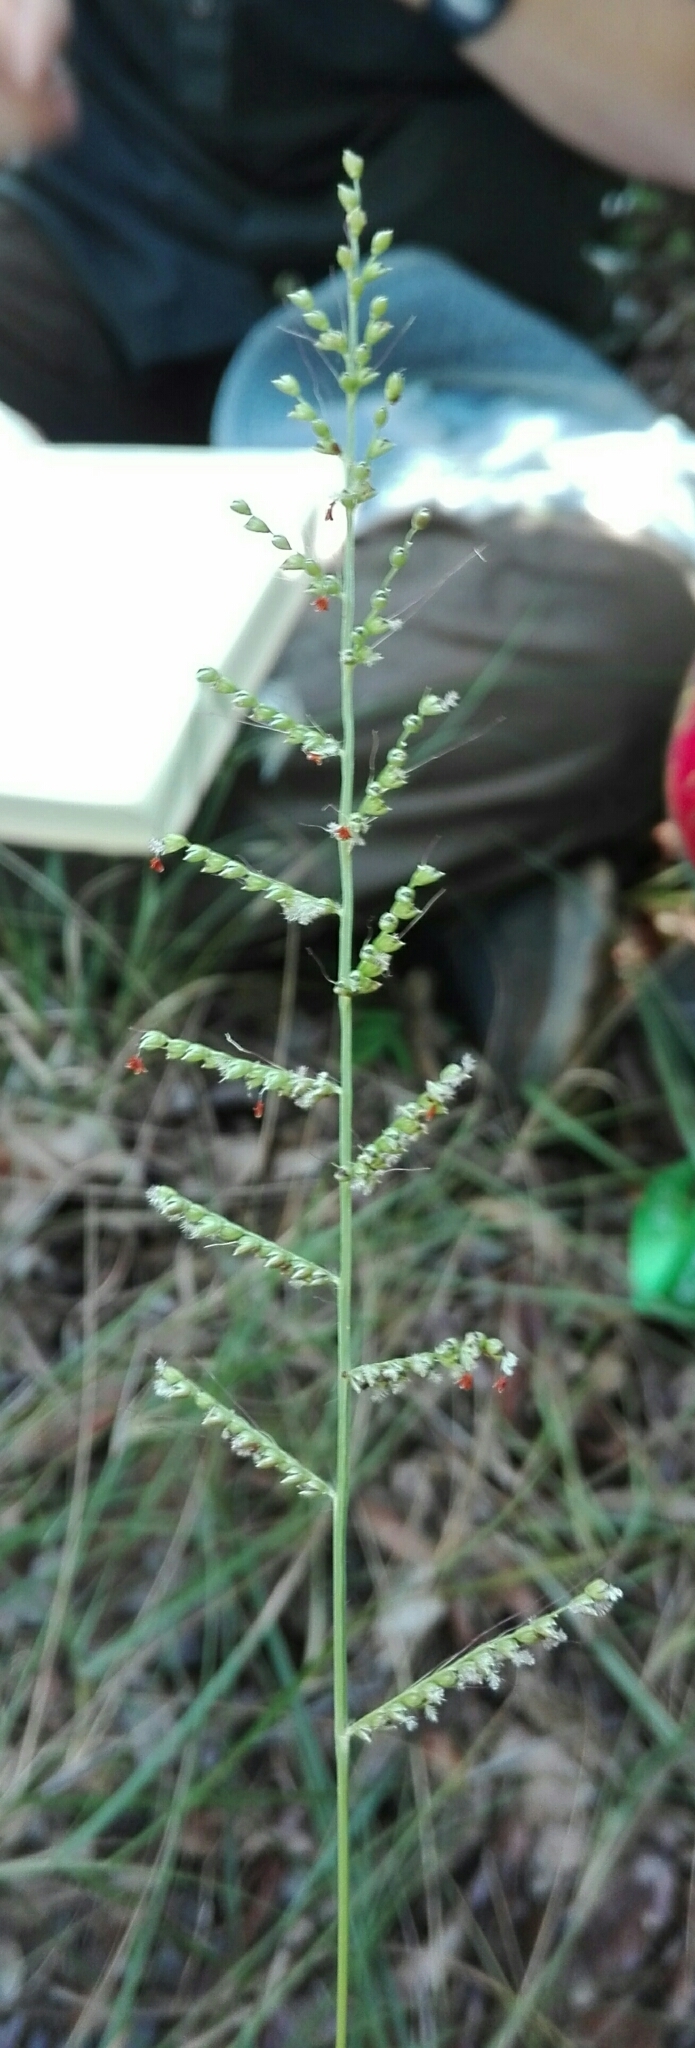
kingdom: Plantae
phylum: Tracheophyta
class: Liliopsida
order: Poales
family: Poaceae
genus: Setaria
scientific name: Setaria madecassa
